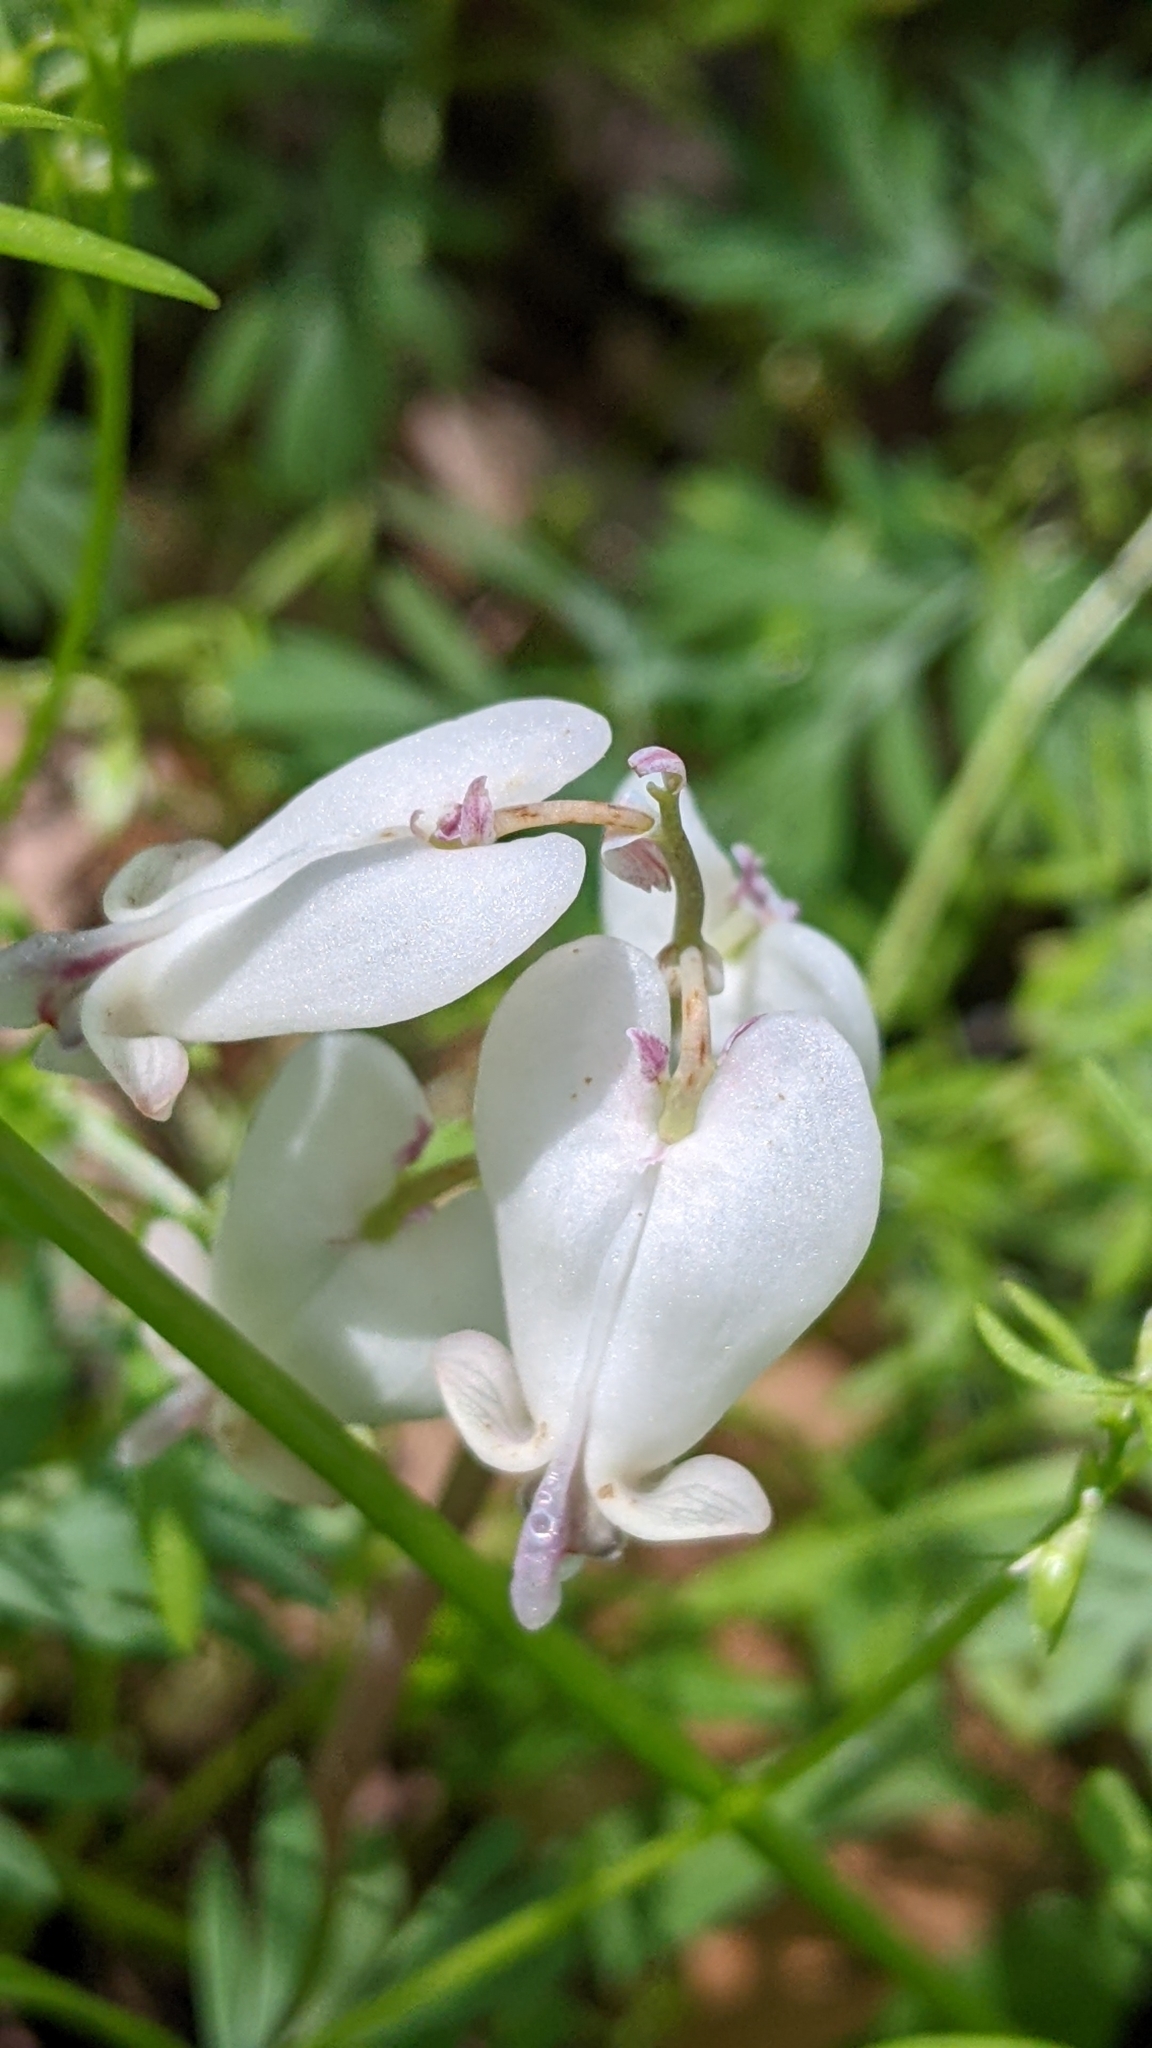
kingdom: Plantae
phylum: Tracheophyta
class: Magnoliopsida
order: Ranunculales
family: Papaveraceae
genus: Dicentra
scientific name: Dicentra canadensis
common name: Squirrel-corn
